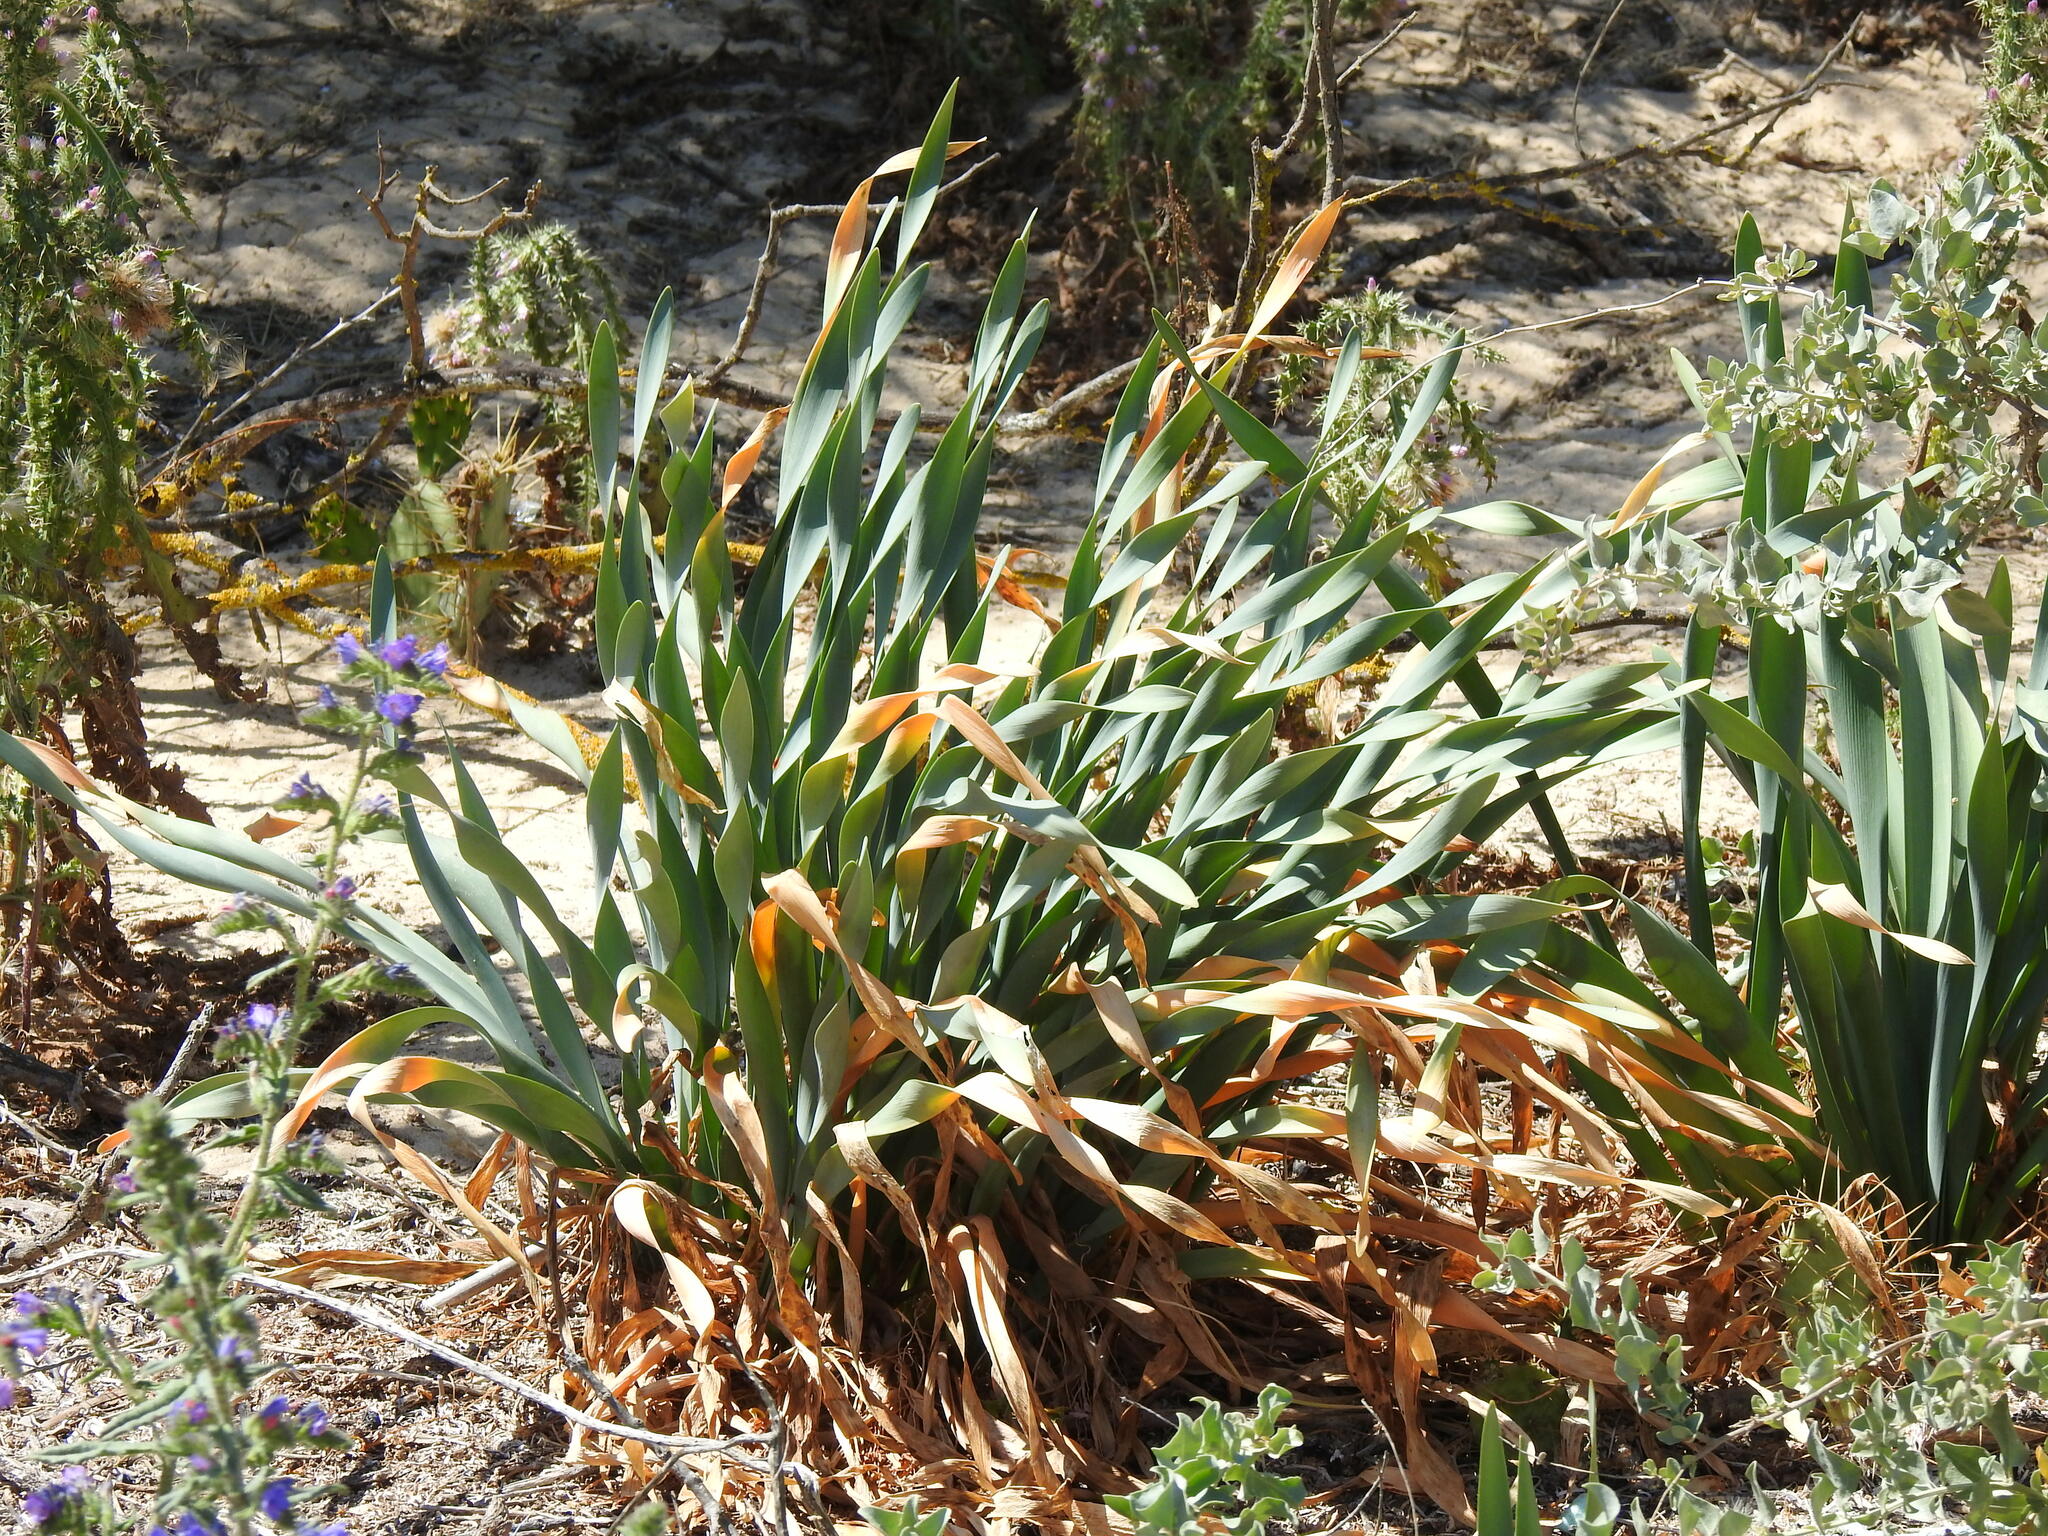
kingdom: Plantae
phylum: Tracheophyta
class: Liliopsida
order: Asparagales
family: Amaryllidaceae
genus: Pancratium
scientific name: Pancratium maritimum
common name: Sea-daffodil
